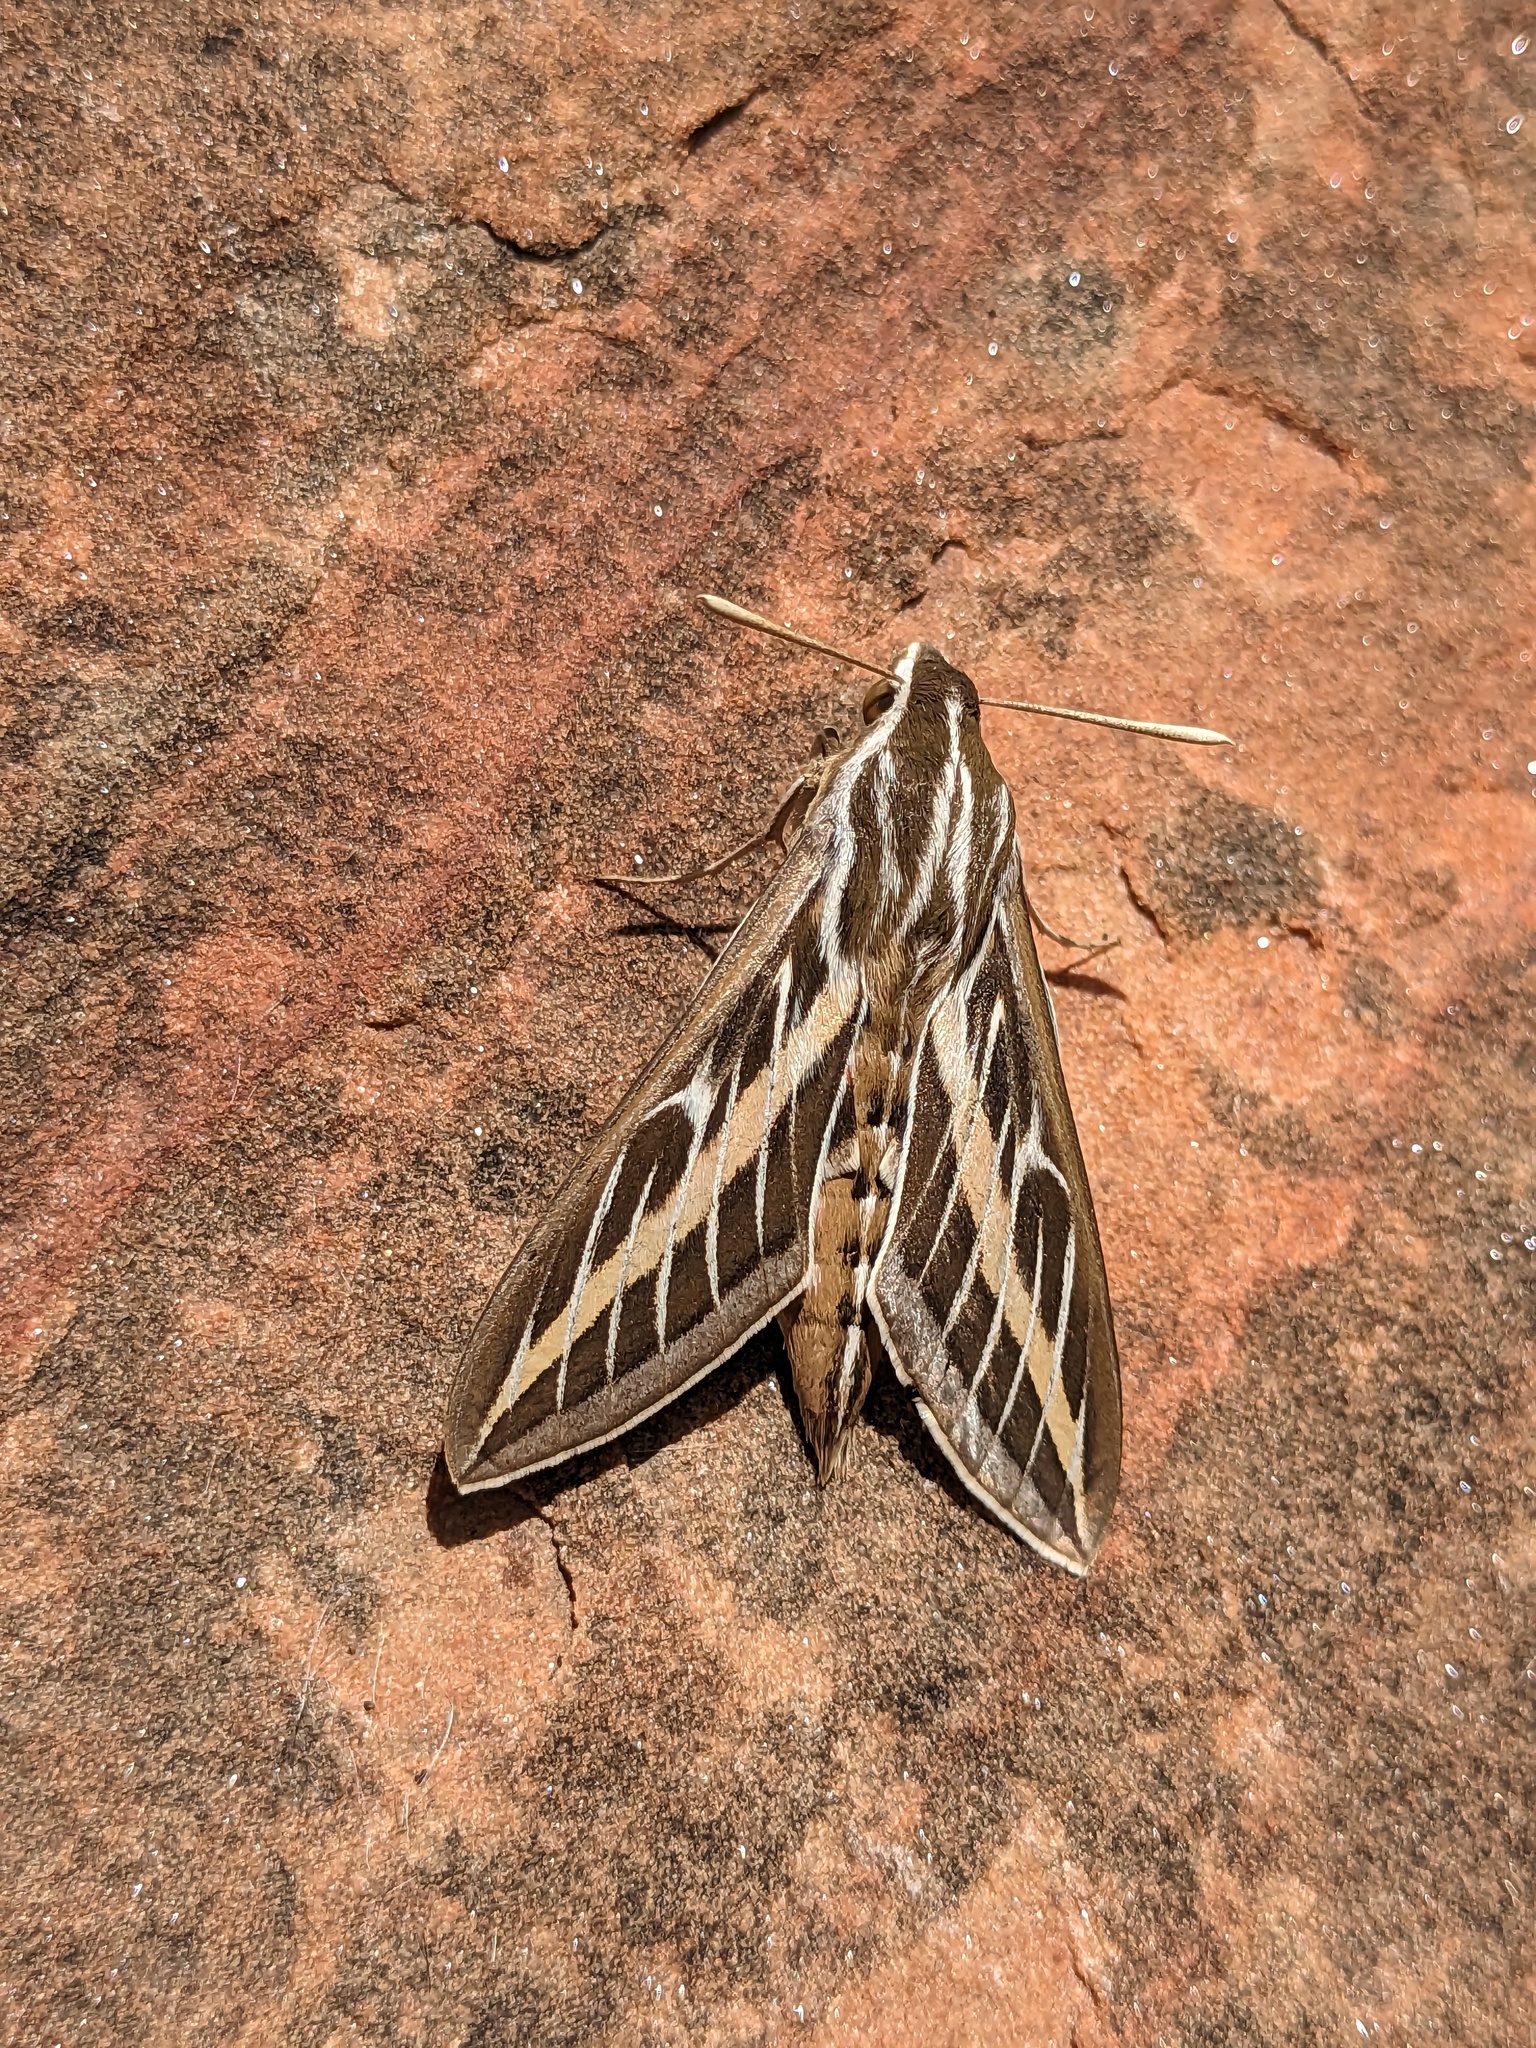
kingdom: Animalia
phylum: Arthropoda
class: Insecta
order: Lepidoptera
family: Sphingidae
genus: Hyles
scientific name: Hyles lineata
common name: White-lined sphinx
